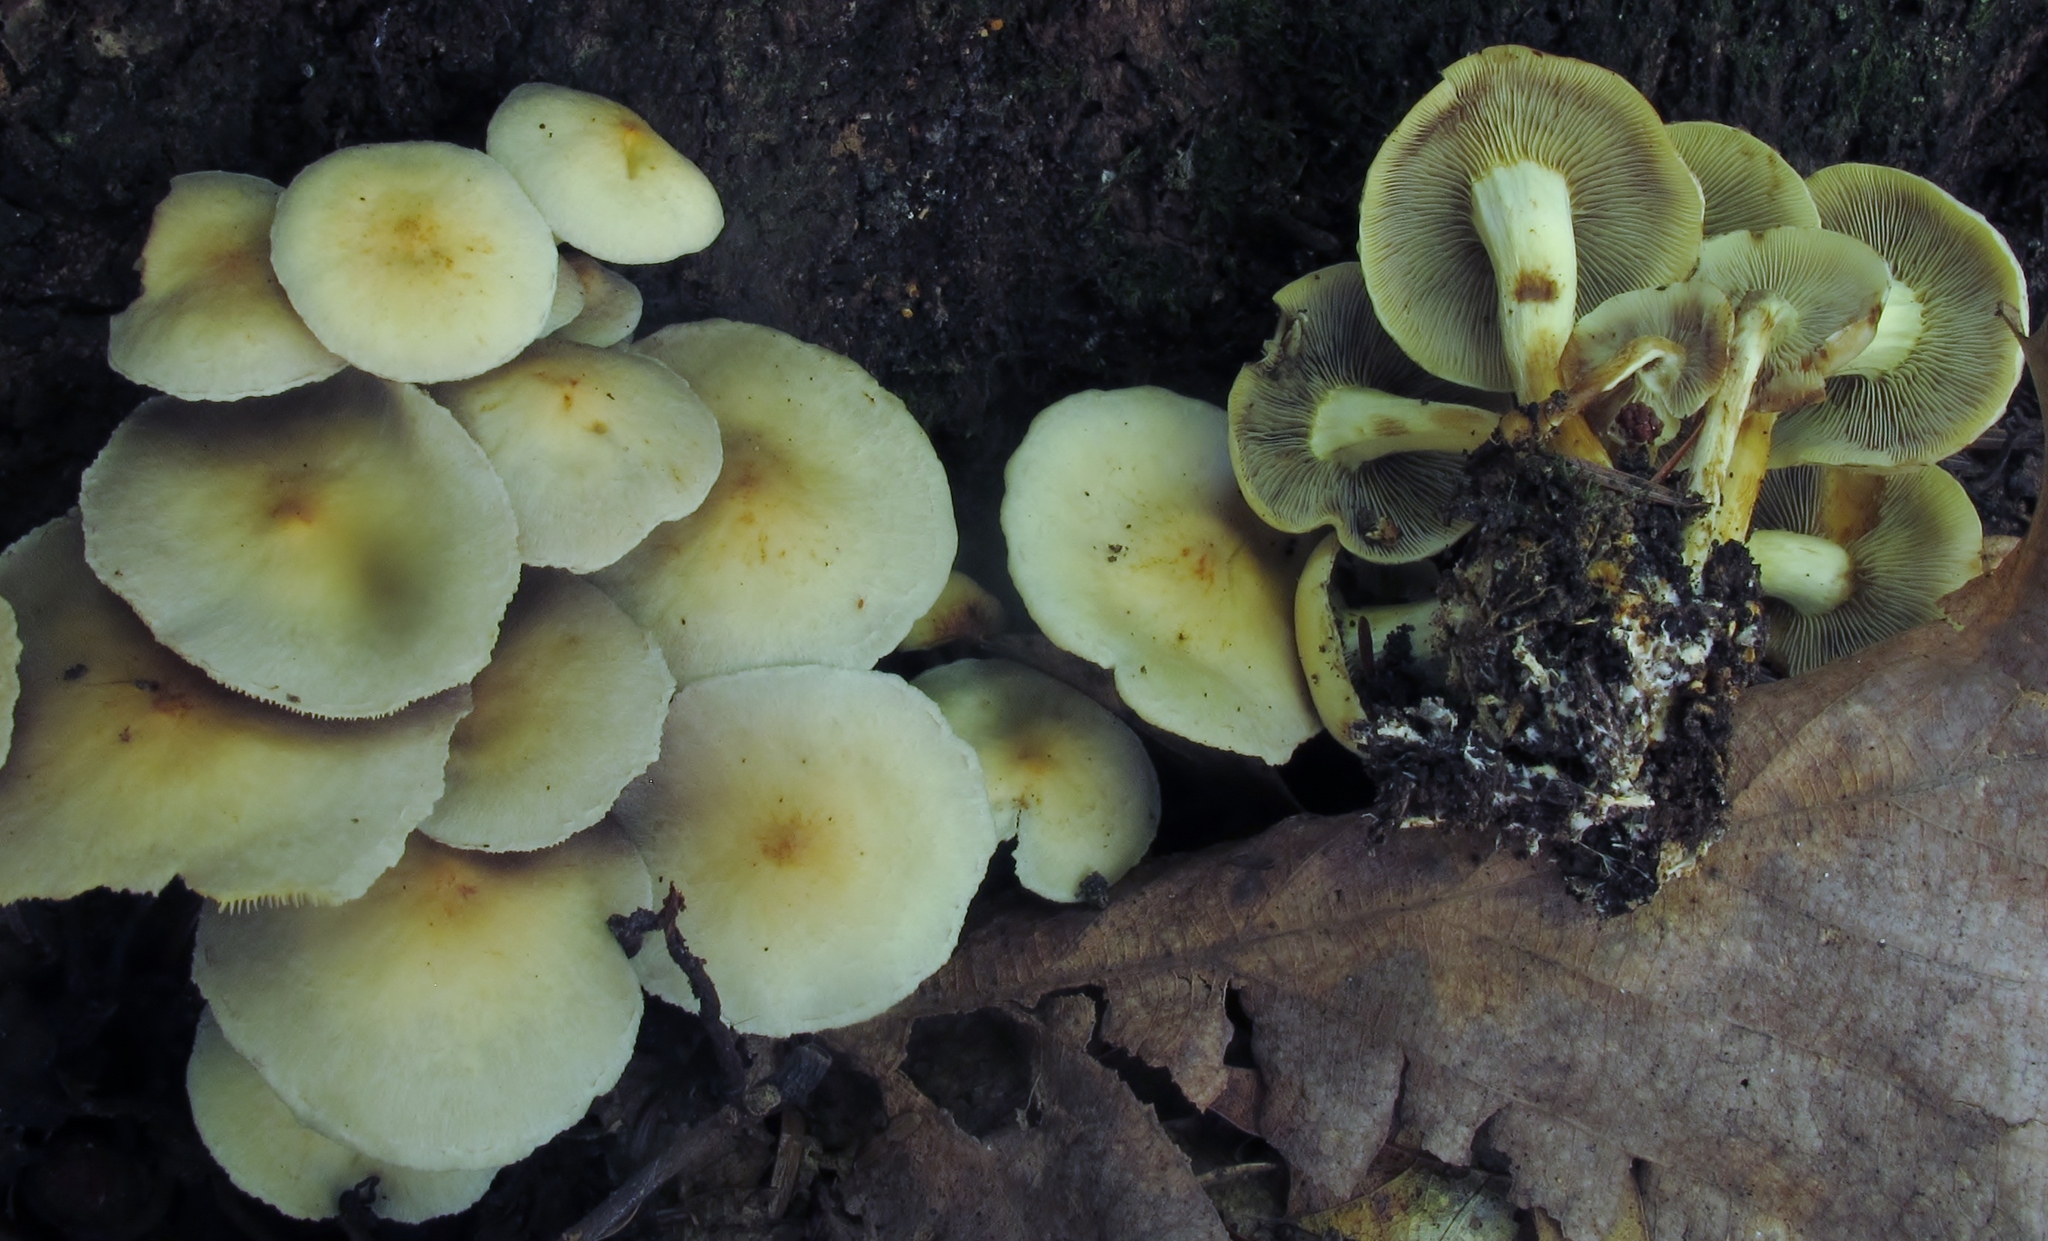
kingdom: Fungi
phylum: Basidiomycota
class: Agaricomycetes
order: Agaricales
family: Strophariaceae
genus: Hypholoma
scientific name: Hypholoma fasciculare
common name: Sulphur tuft
